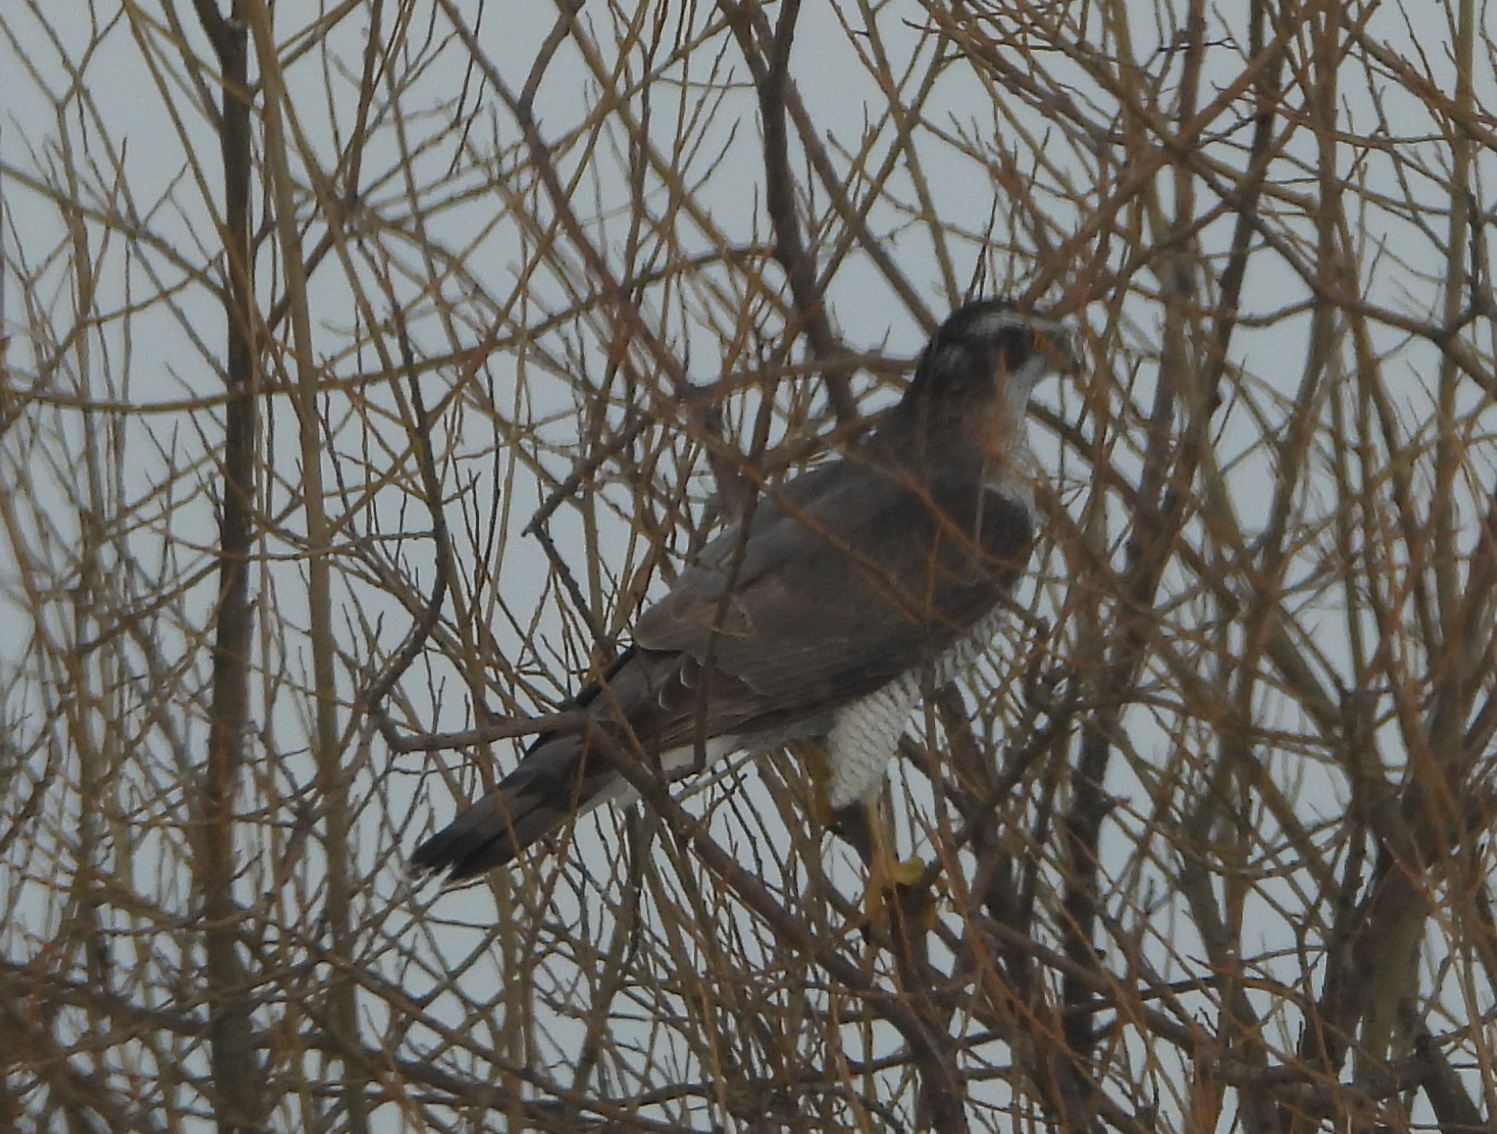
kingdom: Animalia
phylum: Chordata
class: Aves
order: Accipitriformes
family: Accipitridae
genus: Accipiter
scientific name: Accipiter gentilis
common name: Northern goshawk
